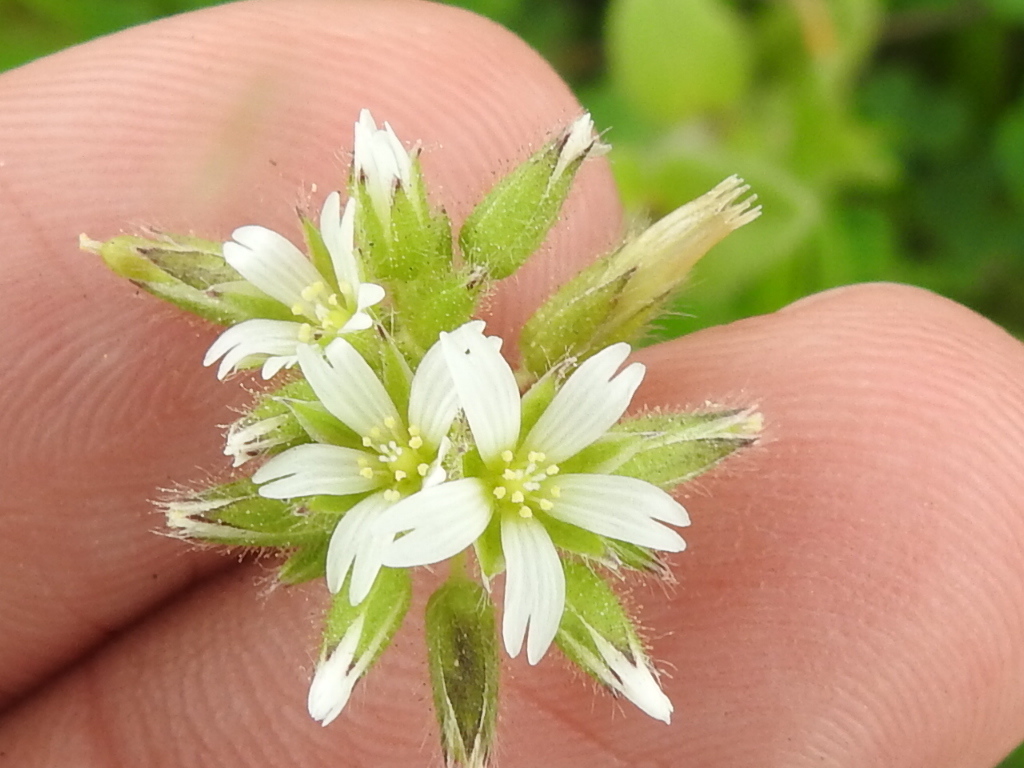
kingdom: Plantae
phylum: Tracheophyta
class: Magnoliopsida
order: Caryophyllales
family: Caryophyllaceae
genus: Cerastium
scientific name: Cerastium glomeratum
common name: Sticky chickweed
